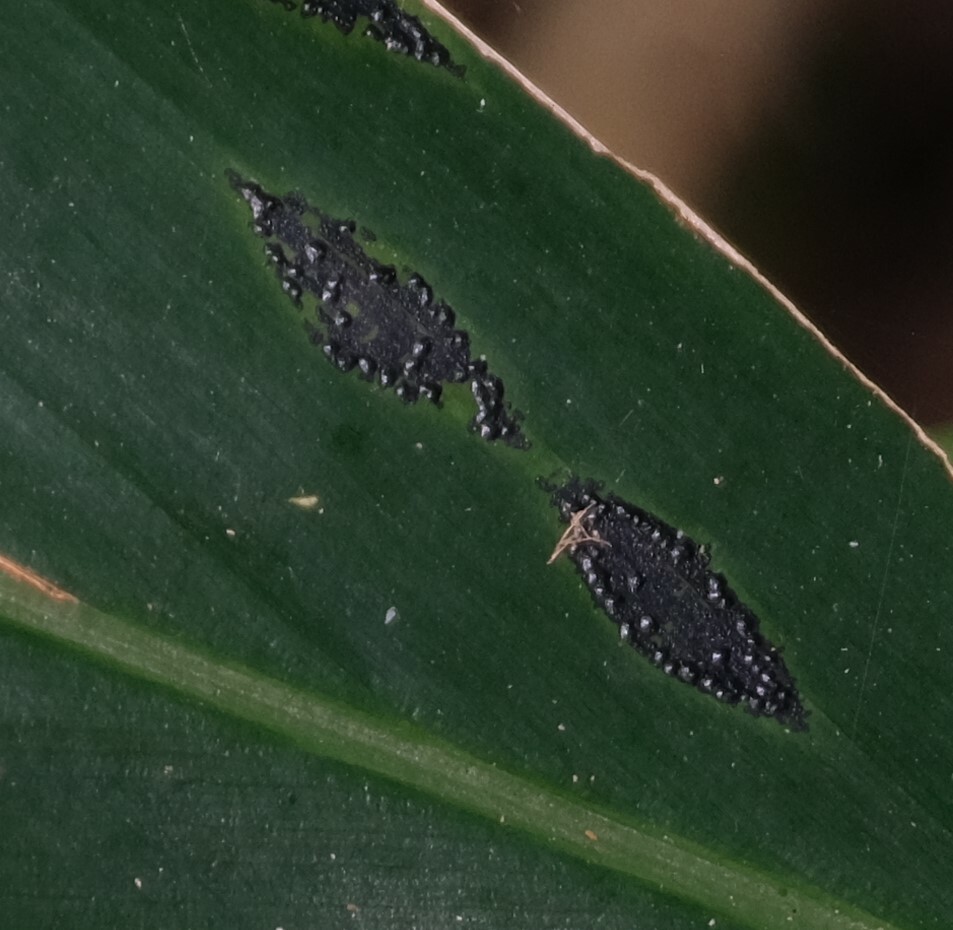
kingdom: Fungi
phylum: Ascomycota
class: Sordariomycetes
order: Phyllachorales
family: Phyllachoraceae
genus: Phyllachora
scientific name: Phyllachora alpiniae
